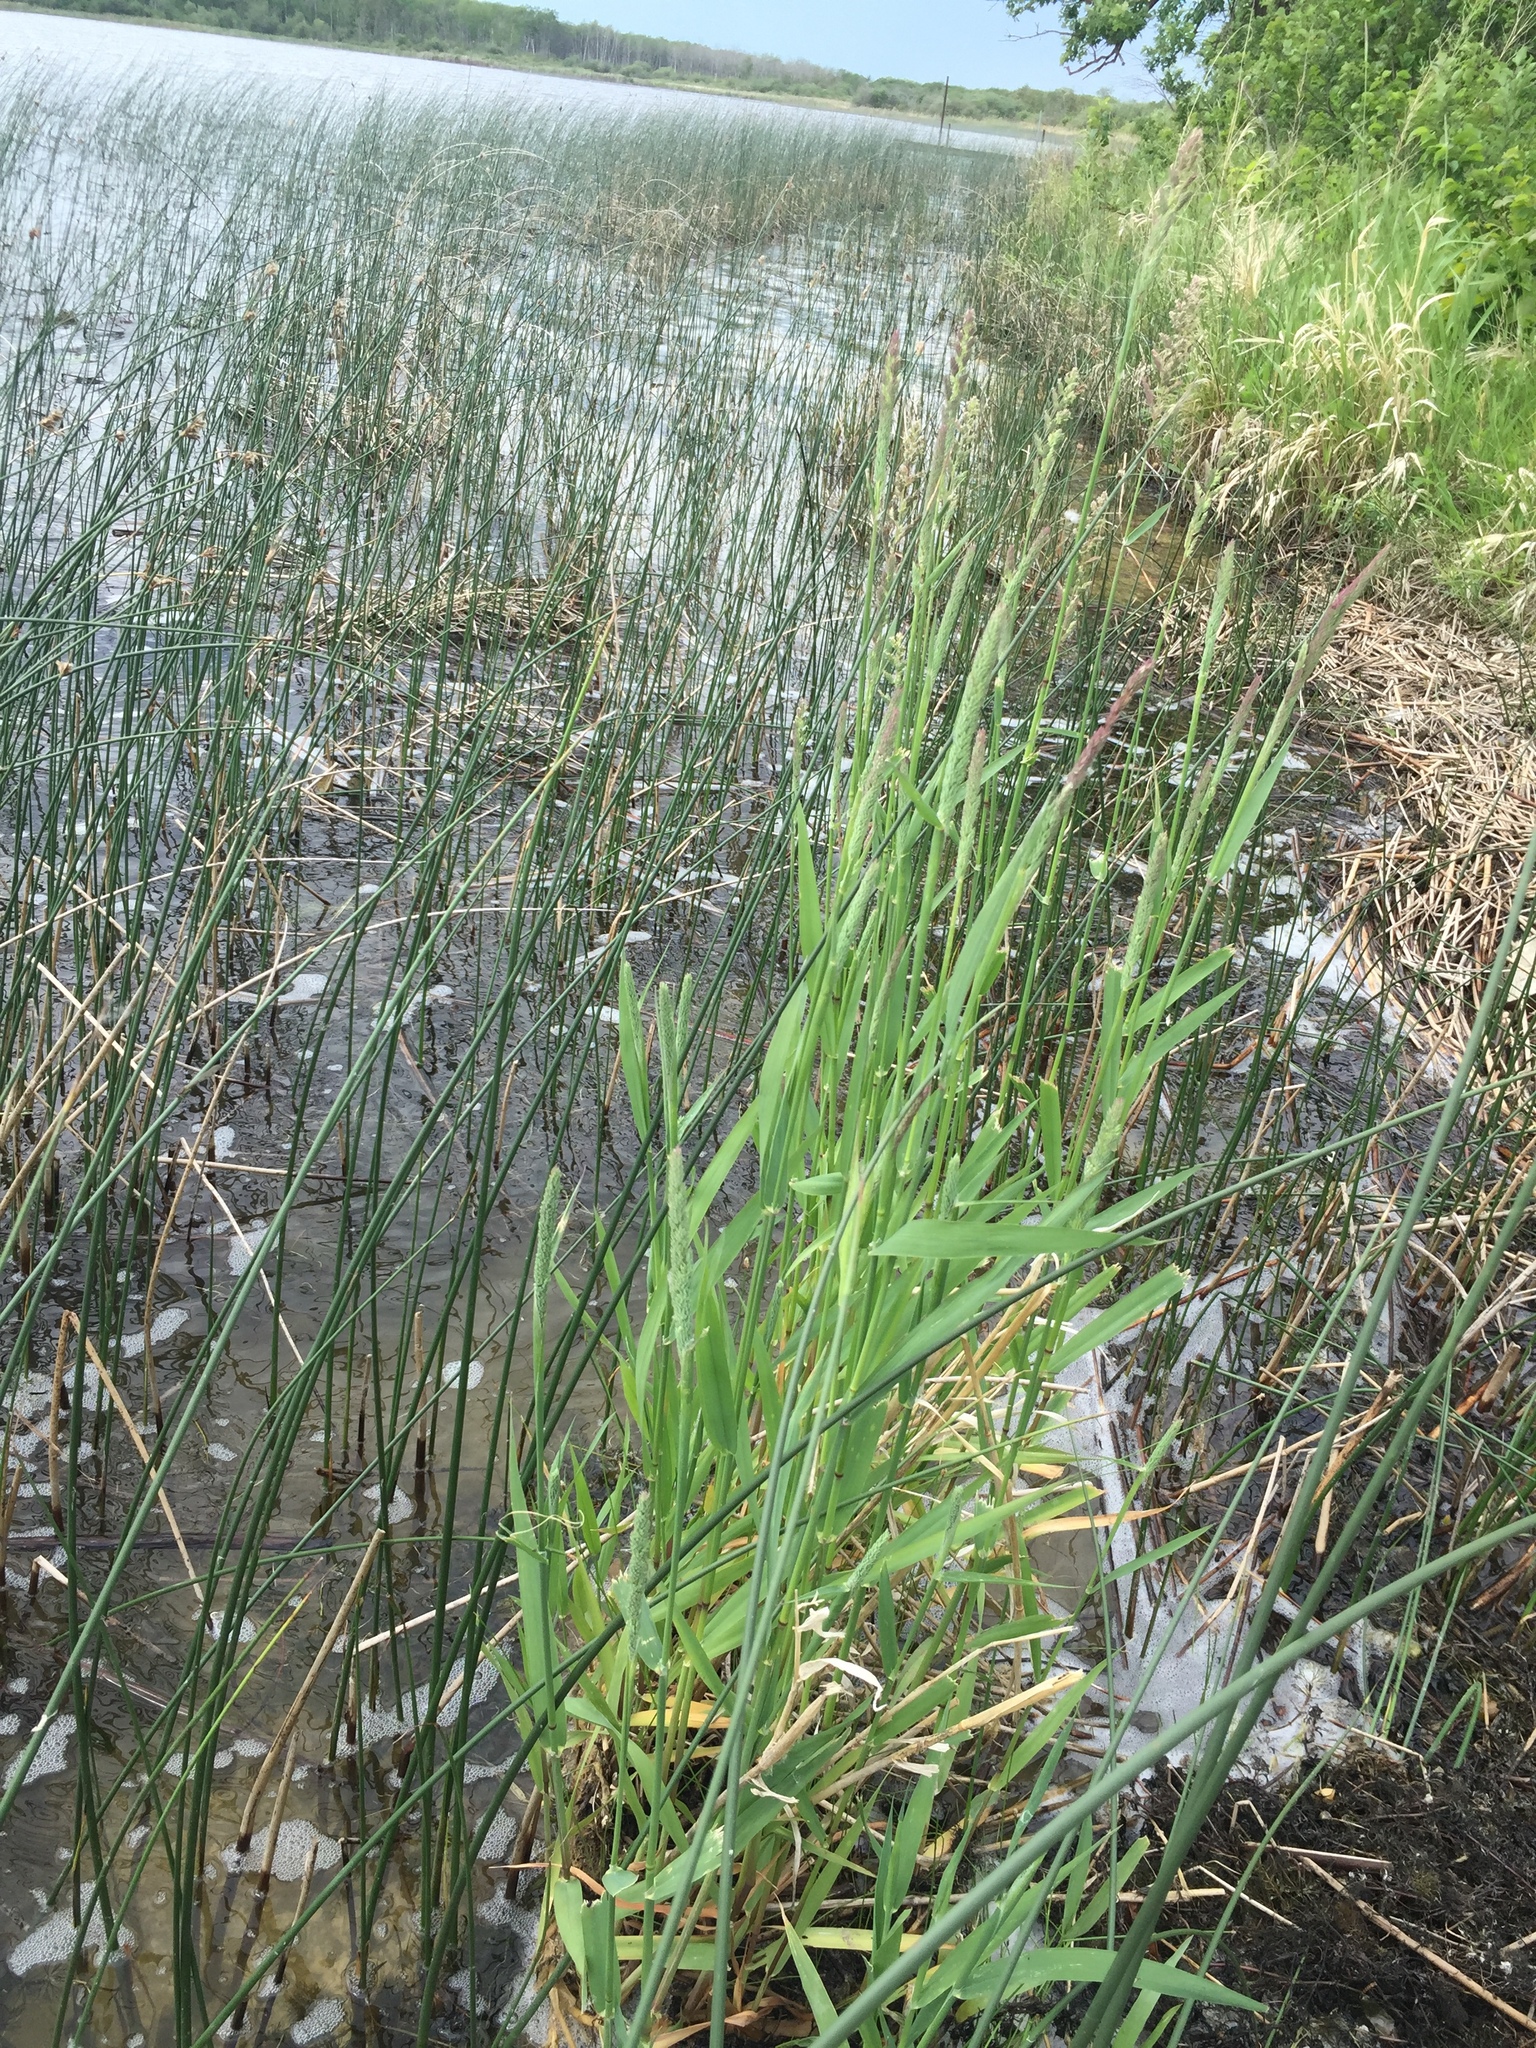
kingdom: Plantae
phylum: Tracheophyta
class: Liliopsida
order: Poales
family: Poaceae
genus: Phalaris
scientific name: Phalaris arundinacea
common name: Reed canary-grass
